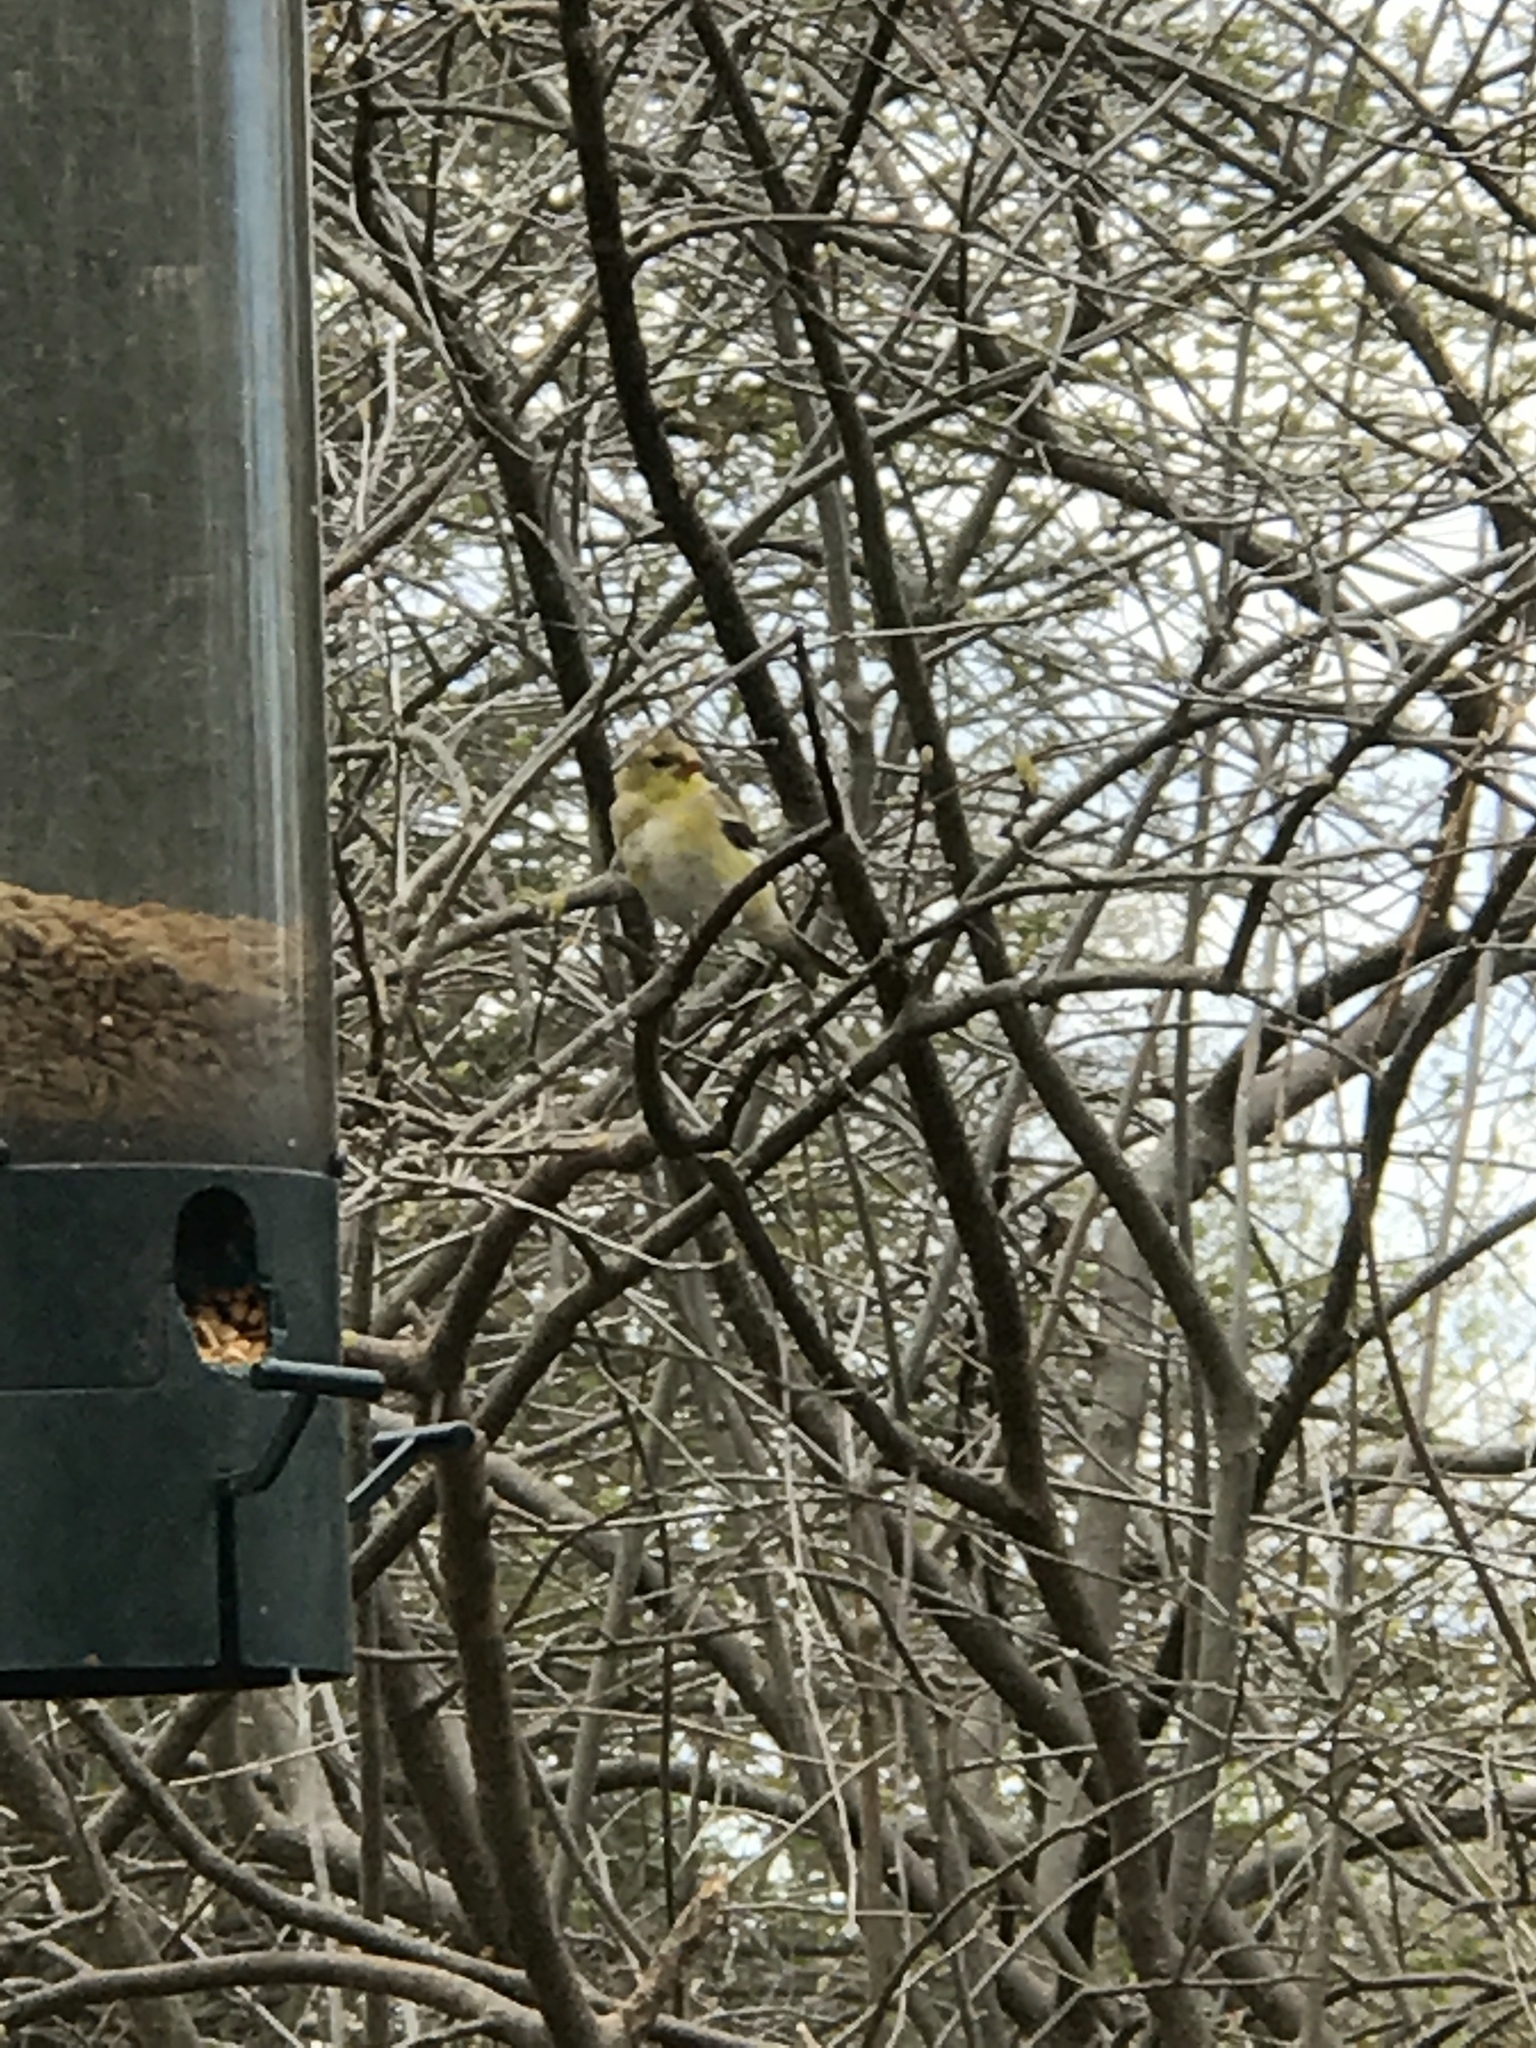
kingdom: Animalia
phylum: Chordata
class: Aves
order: Passeriformes
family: Fringillidae
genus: Spinus
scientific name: Spinus tristis
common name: American goldfinch
